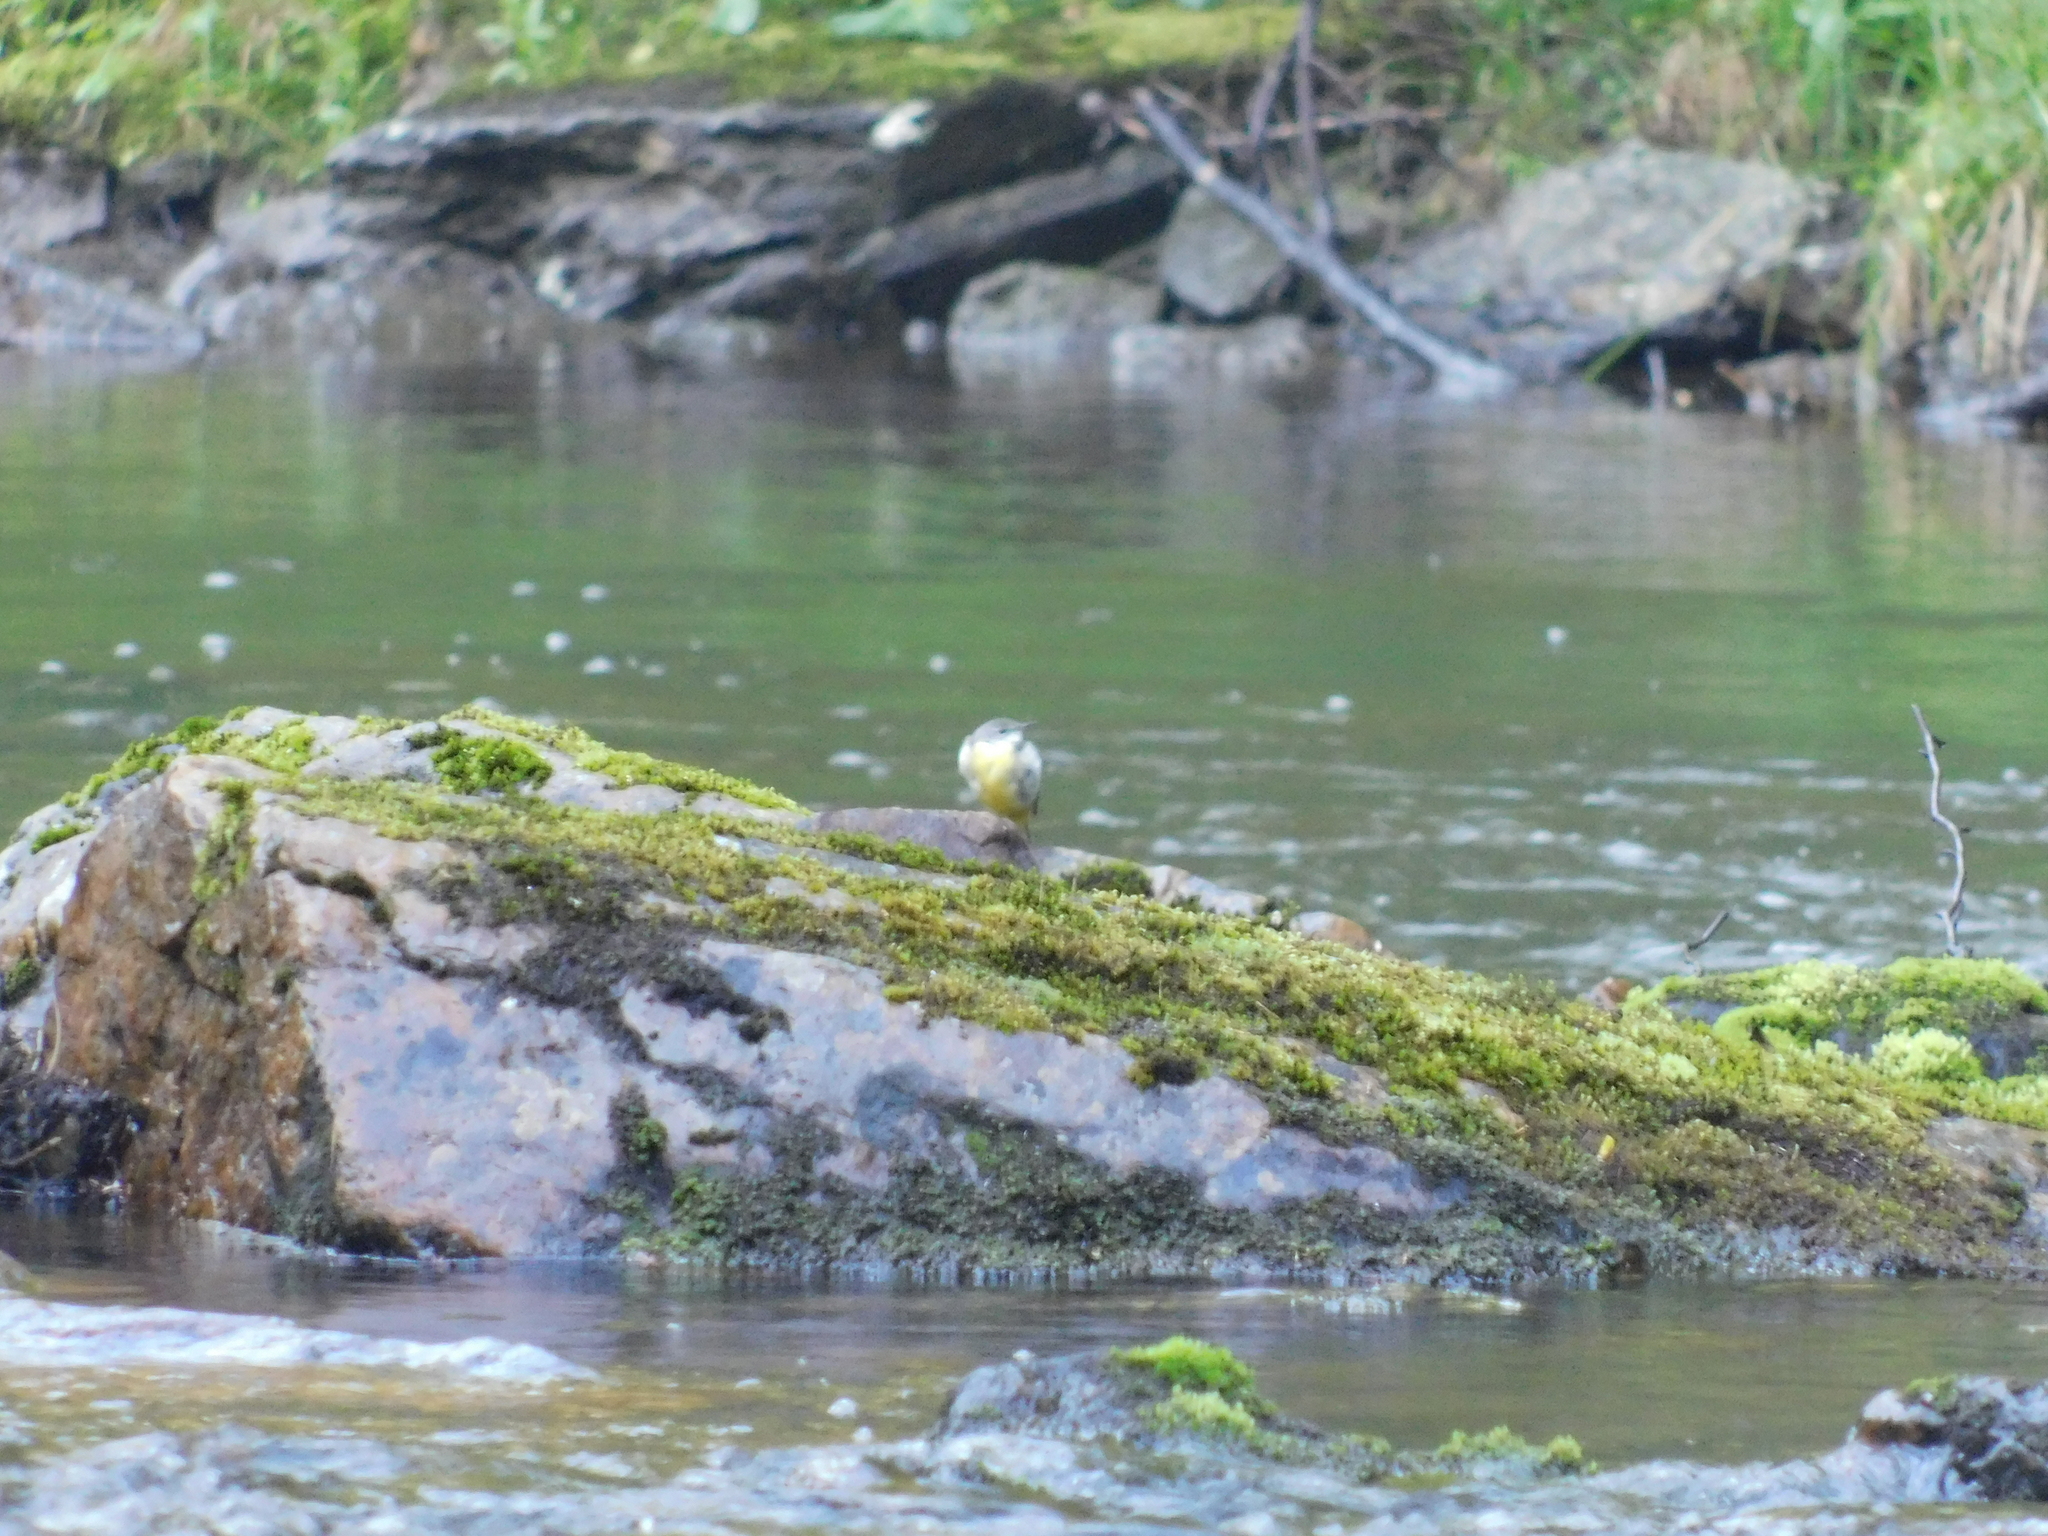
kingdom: Animalia
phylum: Chordata
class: Aves
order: Passeriformes
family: Motacillidae
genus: Motacilla
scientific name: Motacilla cinerea
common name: Grey wagtail
